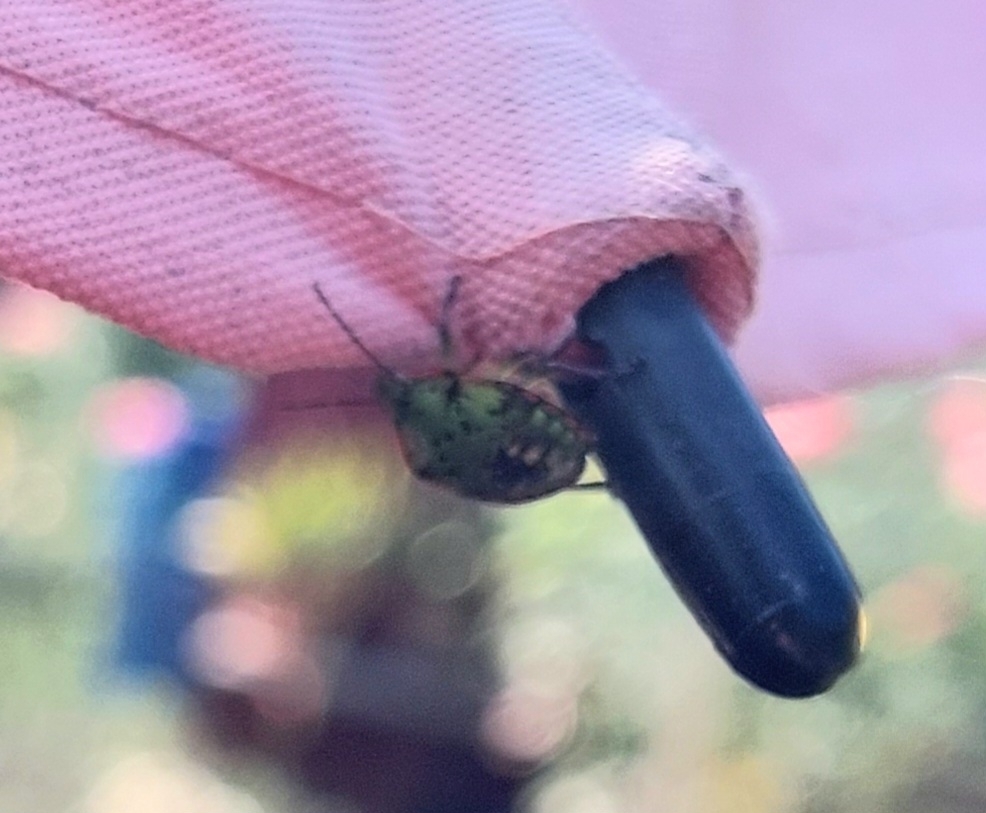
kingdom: Animalia
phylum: Arthropoda
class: Insecta
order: Hemiptera
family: Pentatomidae
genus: Nezara
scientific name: Nezara viridula
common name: Southern green stink bug
